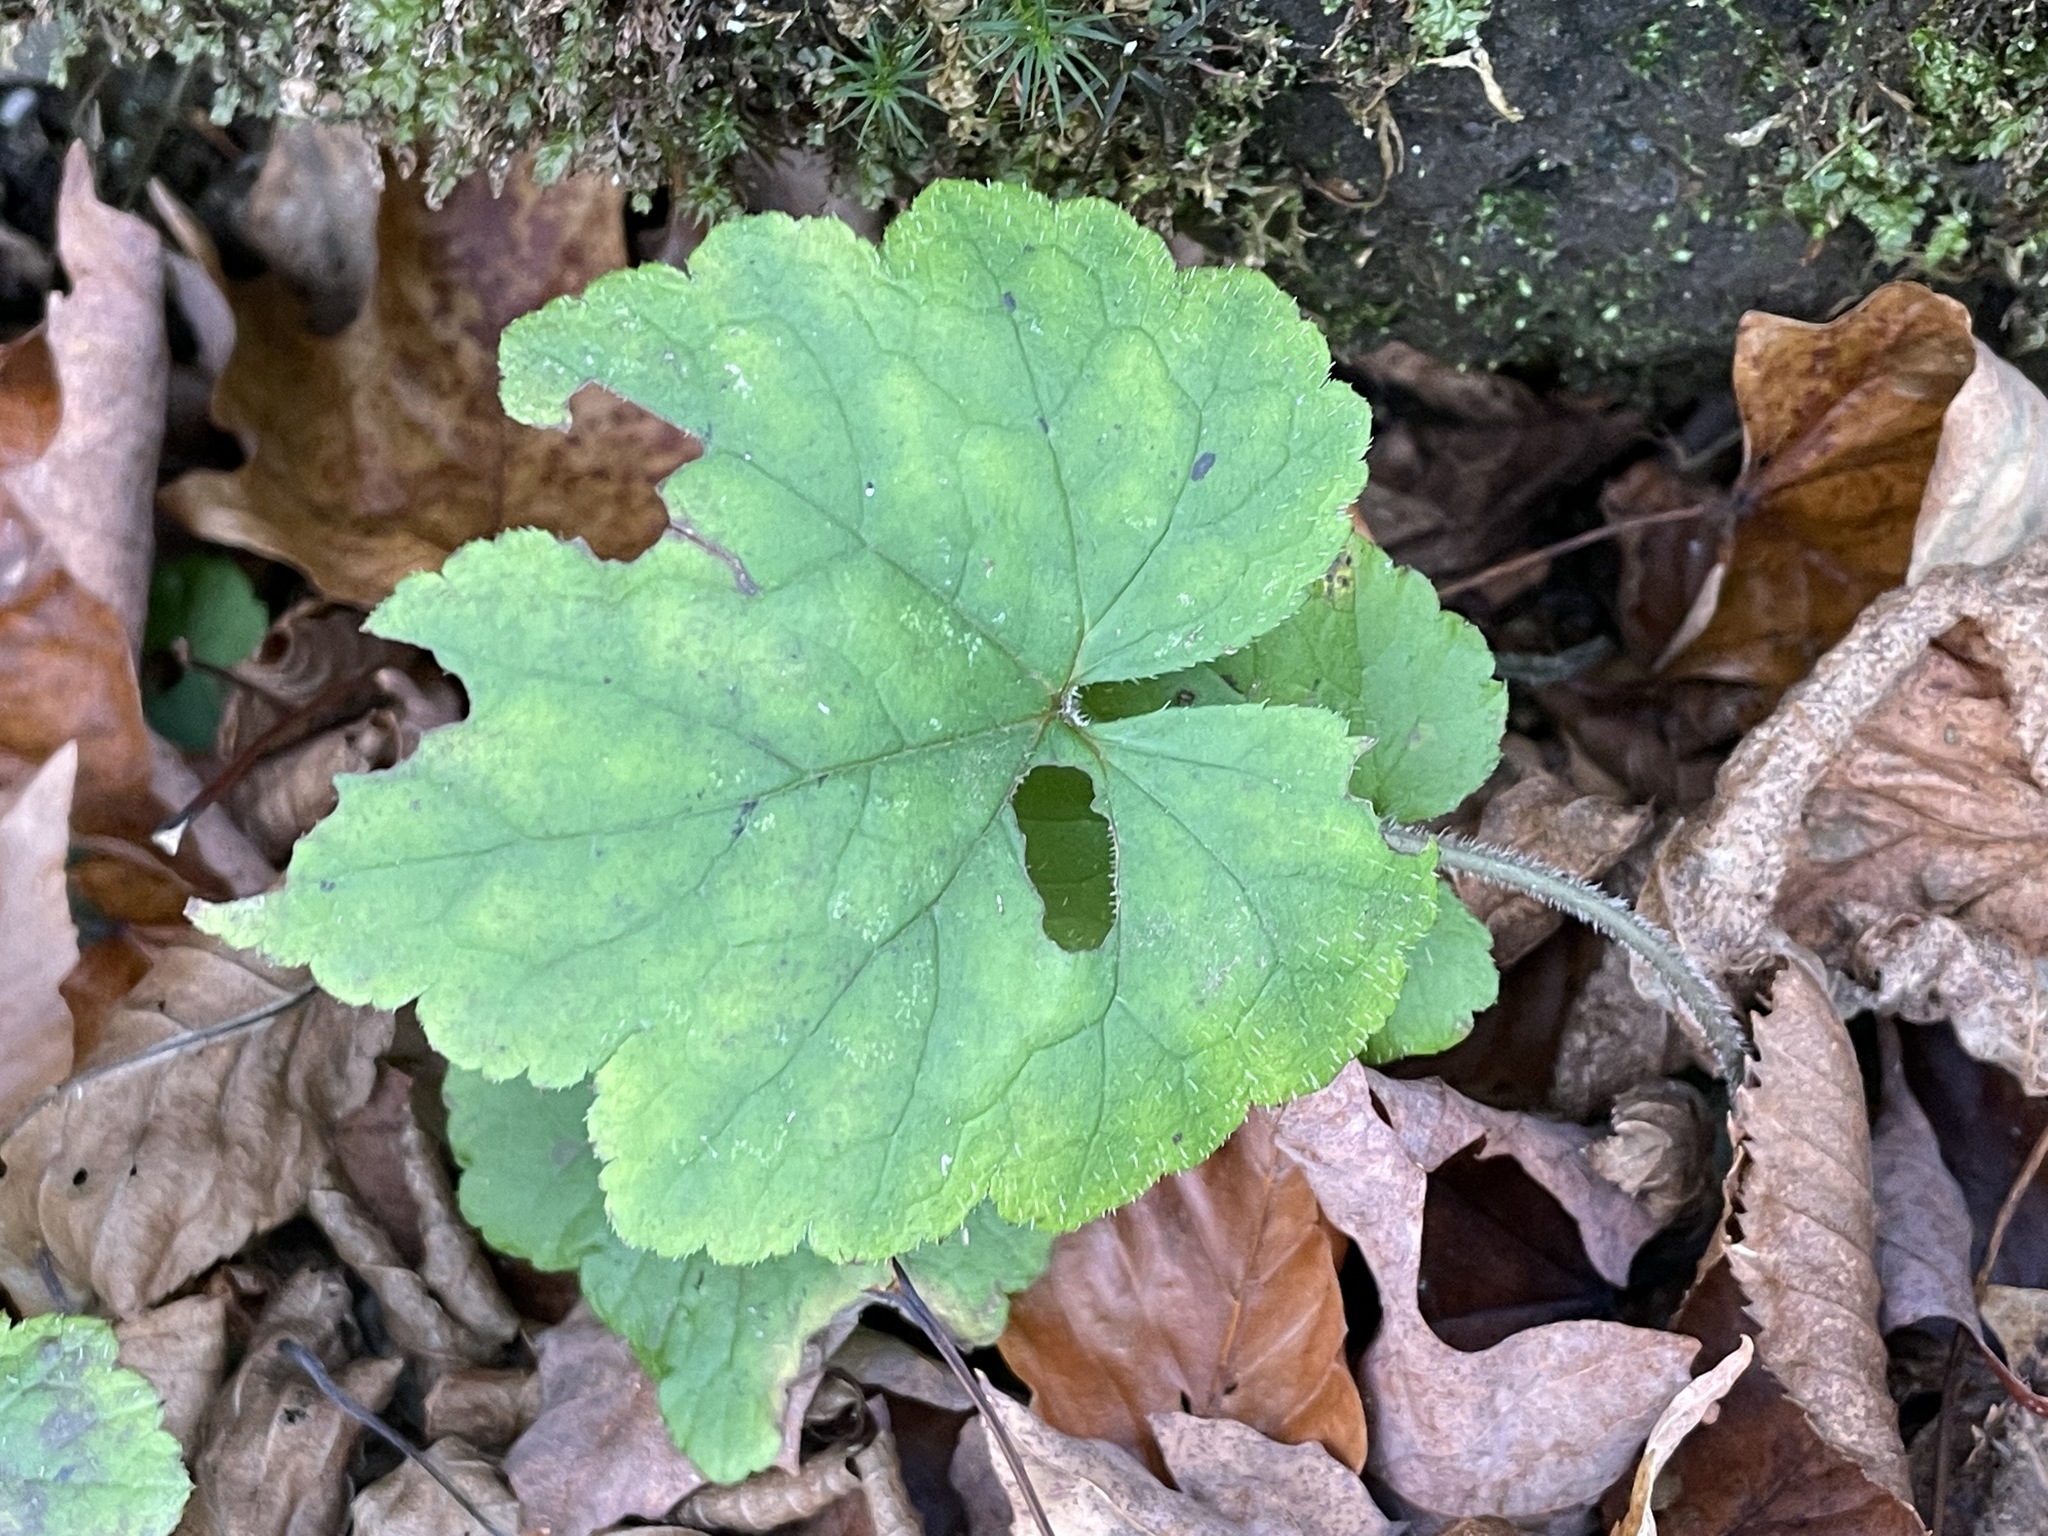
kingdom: Plantae
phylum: Tracheophyta
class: Magnoliopsida
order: Saxifragales
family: Saxifragaceae
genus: Tiarella
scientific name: Tiarella stolonifera
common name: Stoloniferous foamflower
